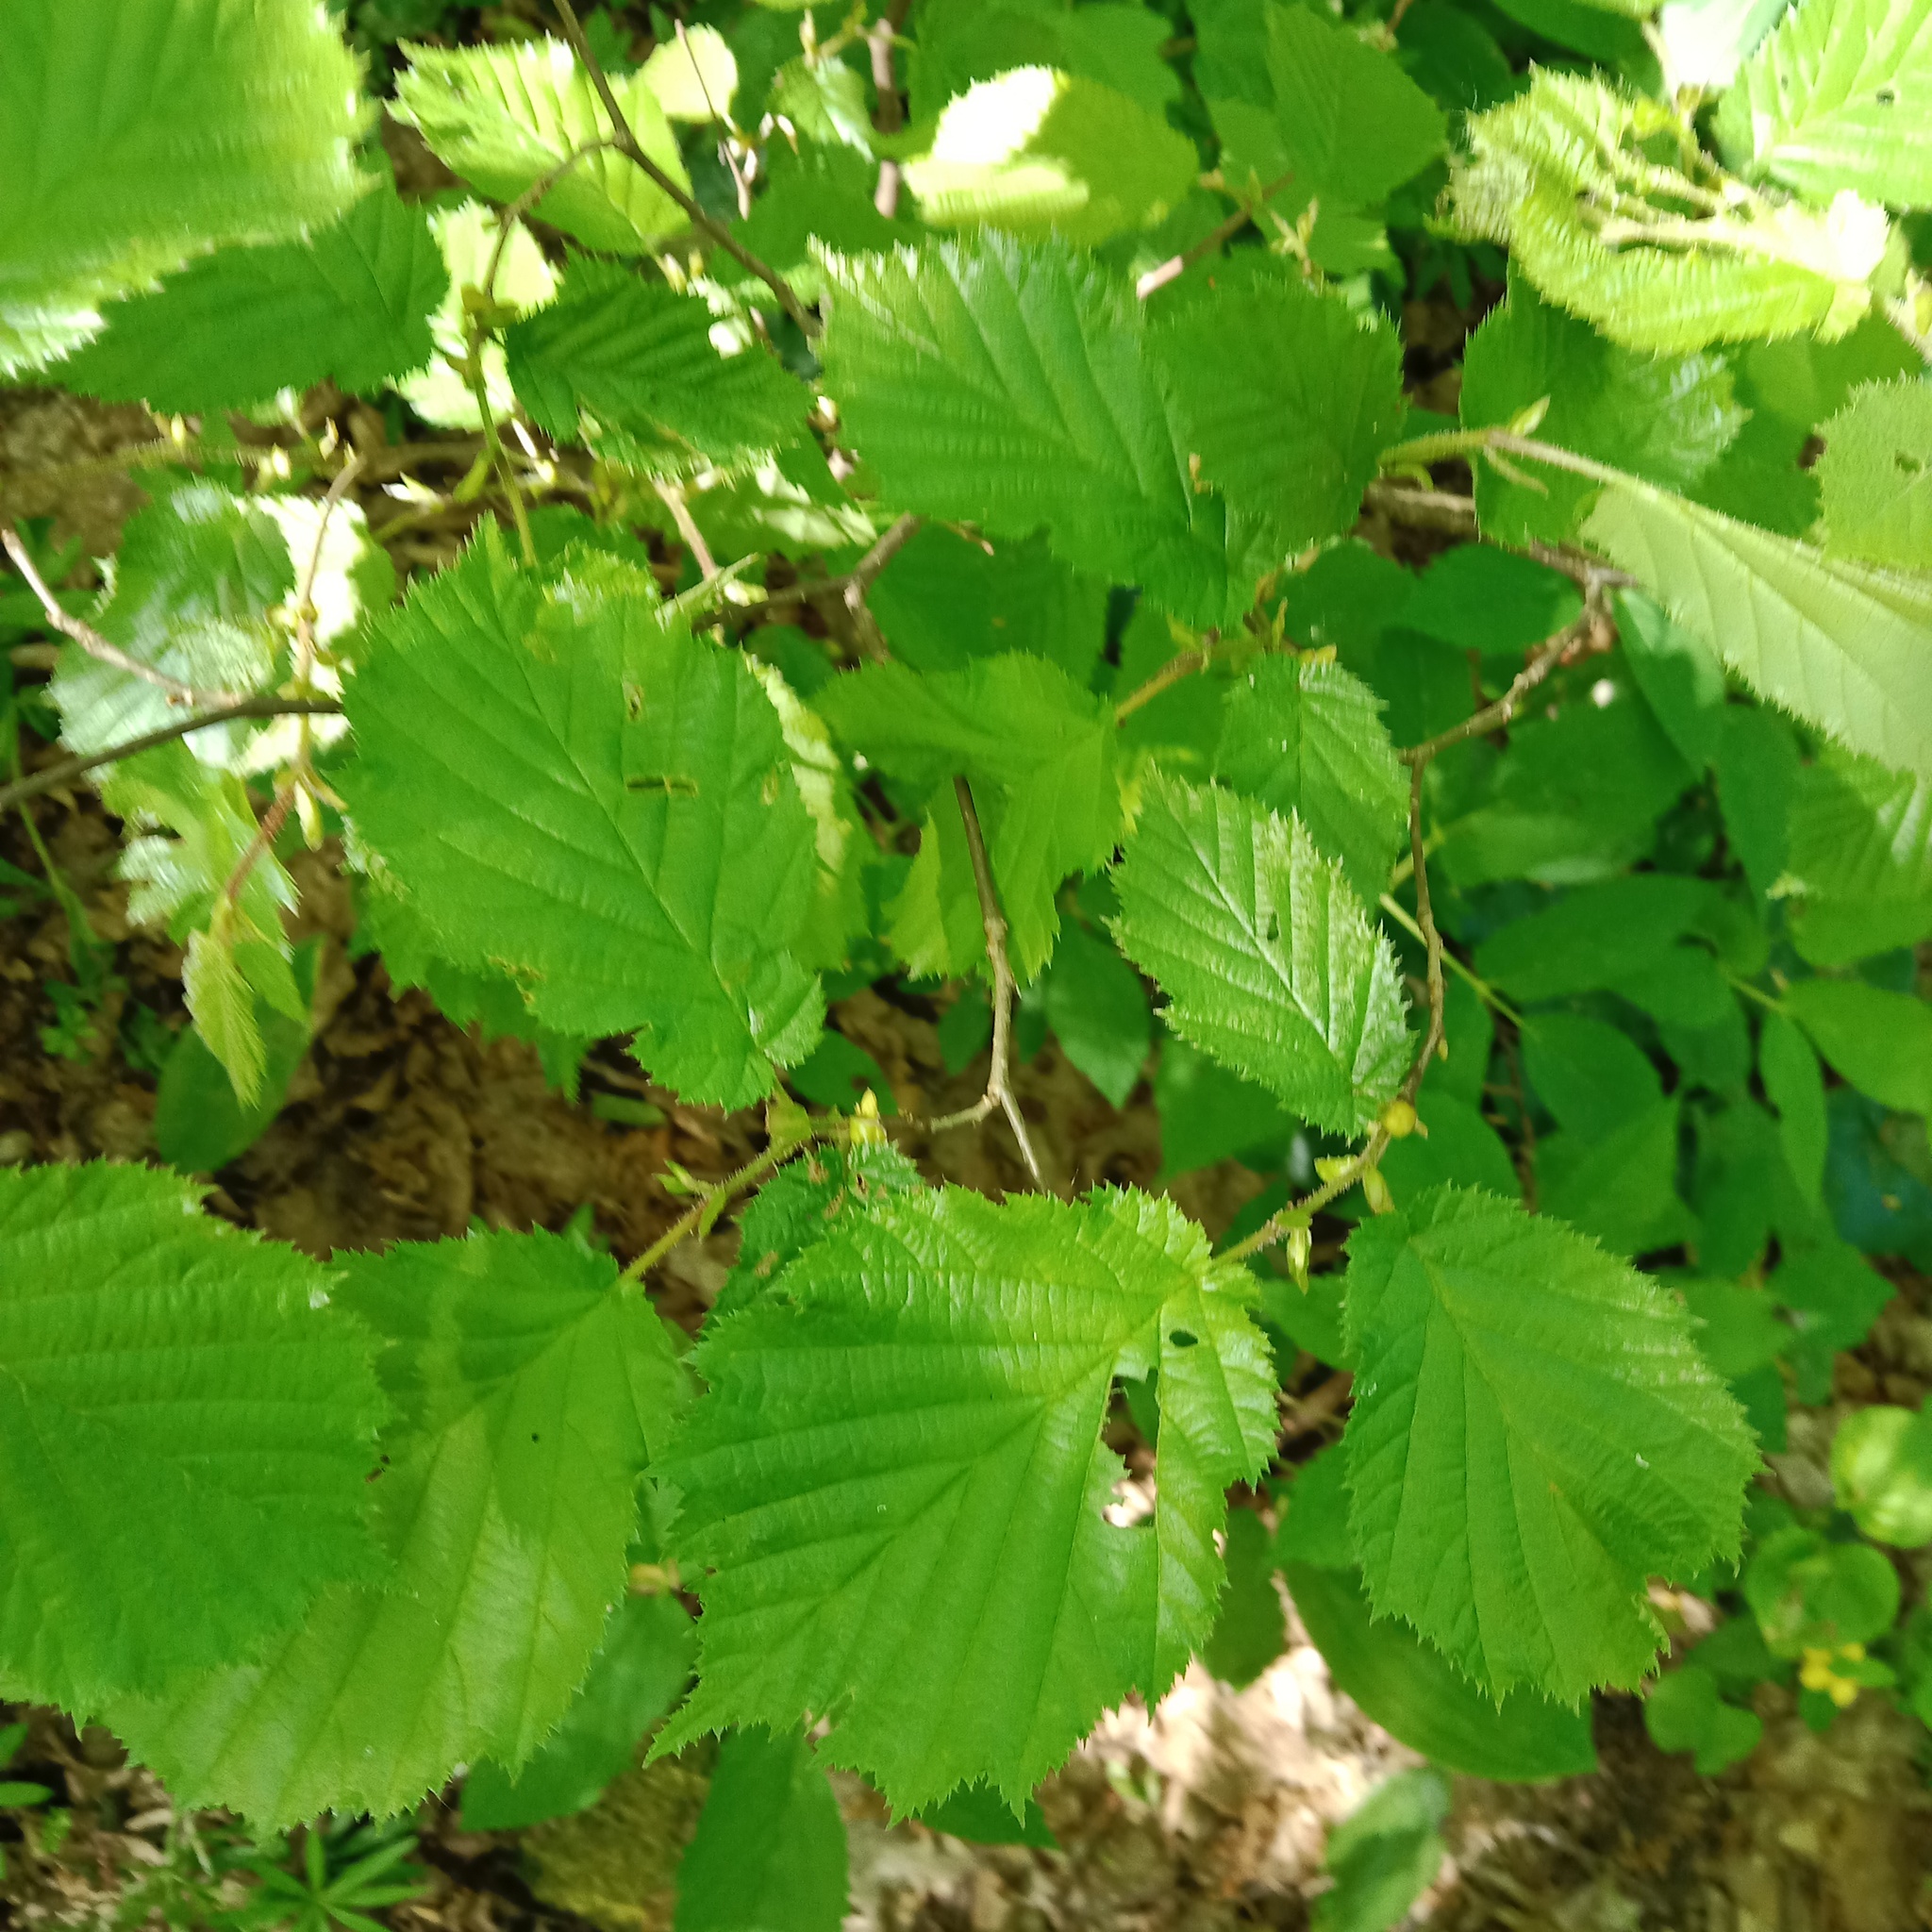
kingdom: Plantae
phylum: Tracheophyta
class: Magnoliopsida
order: Fagales
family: Betulaceae
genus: Corylus
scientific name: Corylus avellana
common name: European hazel
